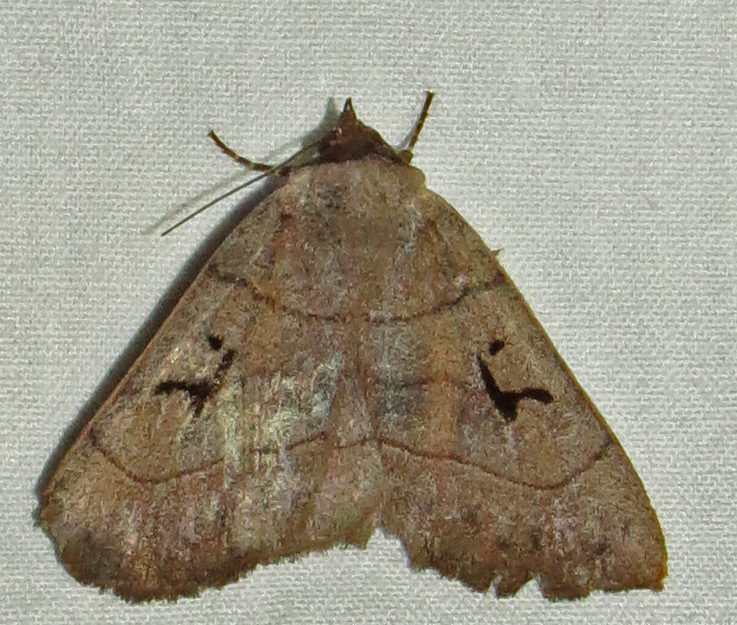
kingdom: Animalia
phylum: Arthropoda
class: Insecta
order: Lepidoptera
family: Erebidae
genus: Panopoda
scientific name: Panopoda carneicosta
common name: Brown panopoda moth
